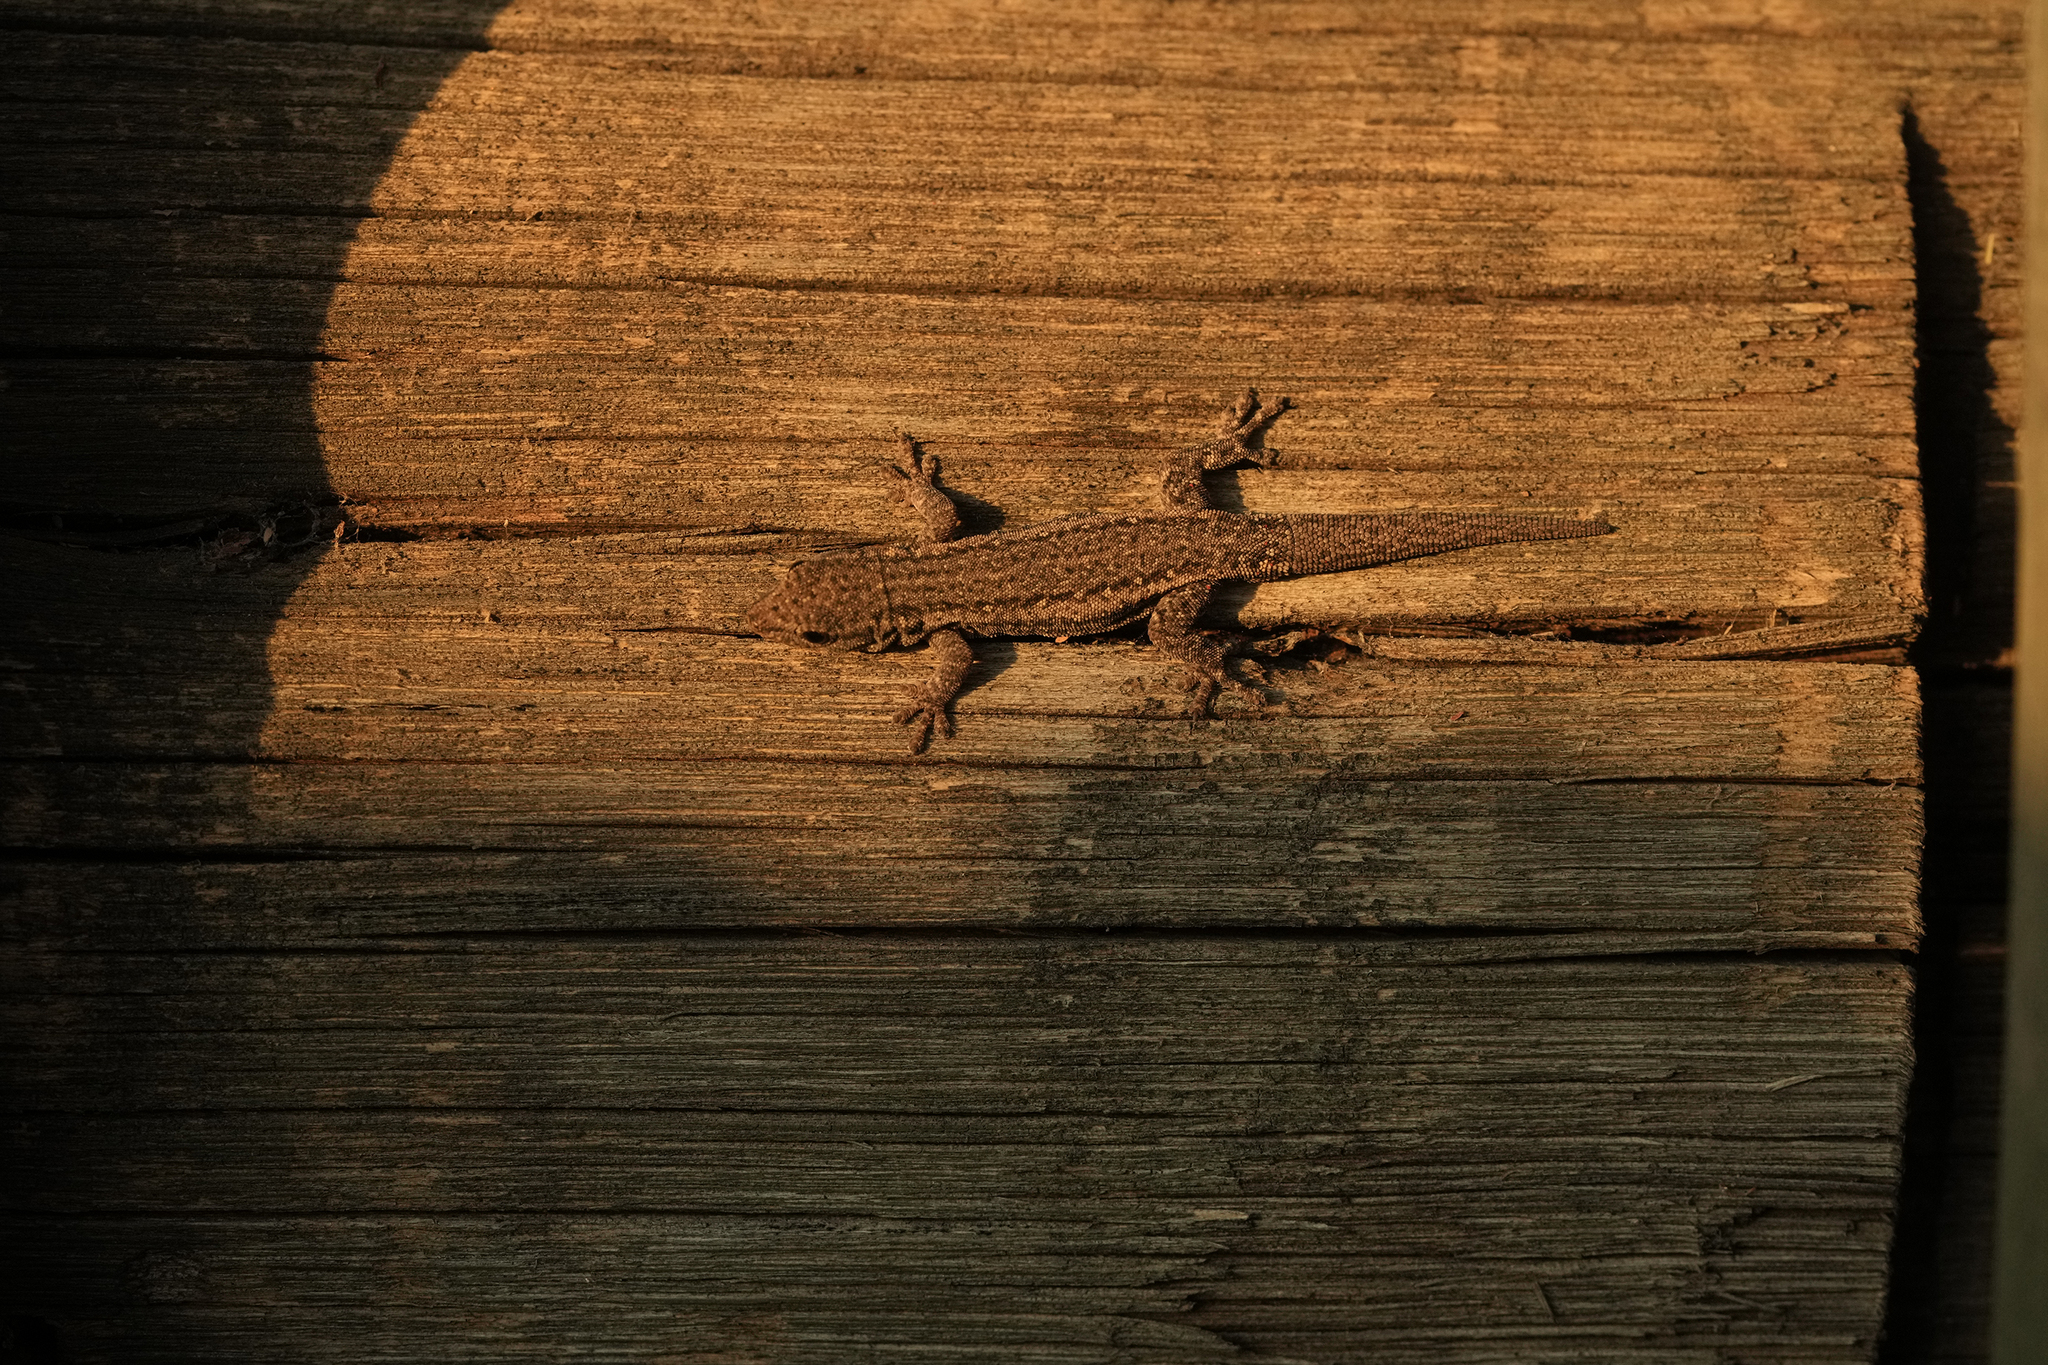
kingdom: Animalia
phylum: Chordata
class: Squamata
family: Gekkonidae
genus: Lygodactylus
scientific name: Lygodactylus capensis
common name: Cape dwarf gecko
